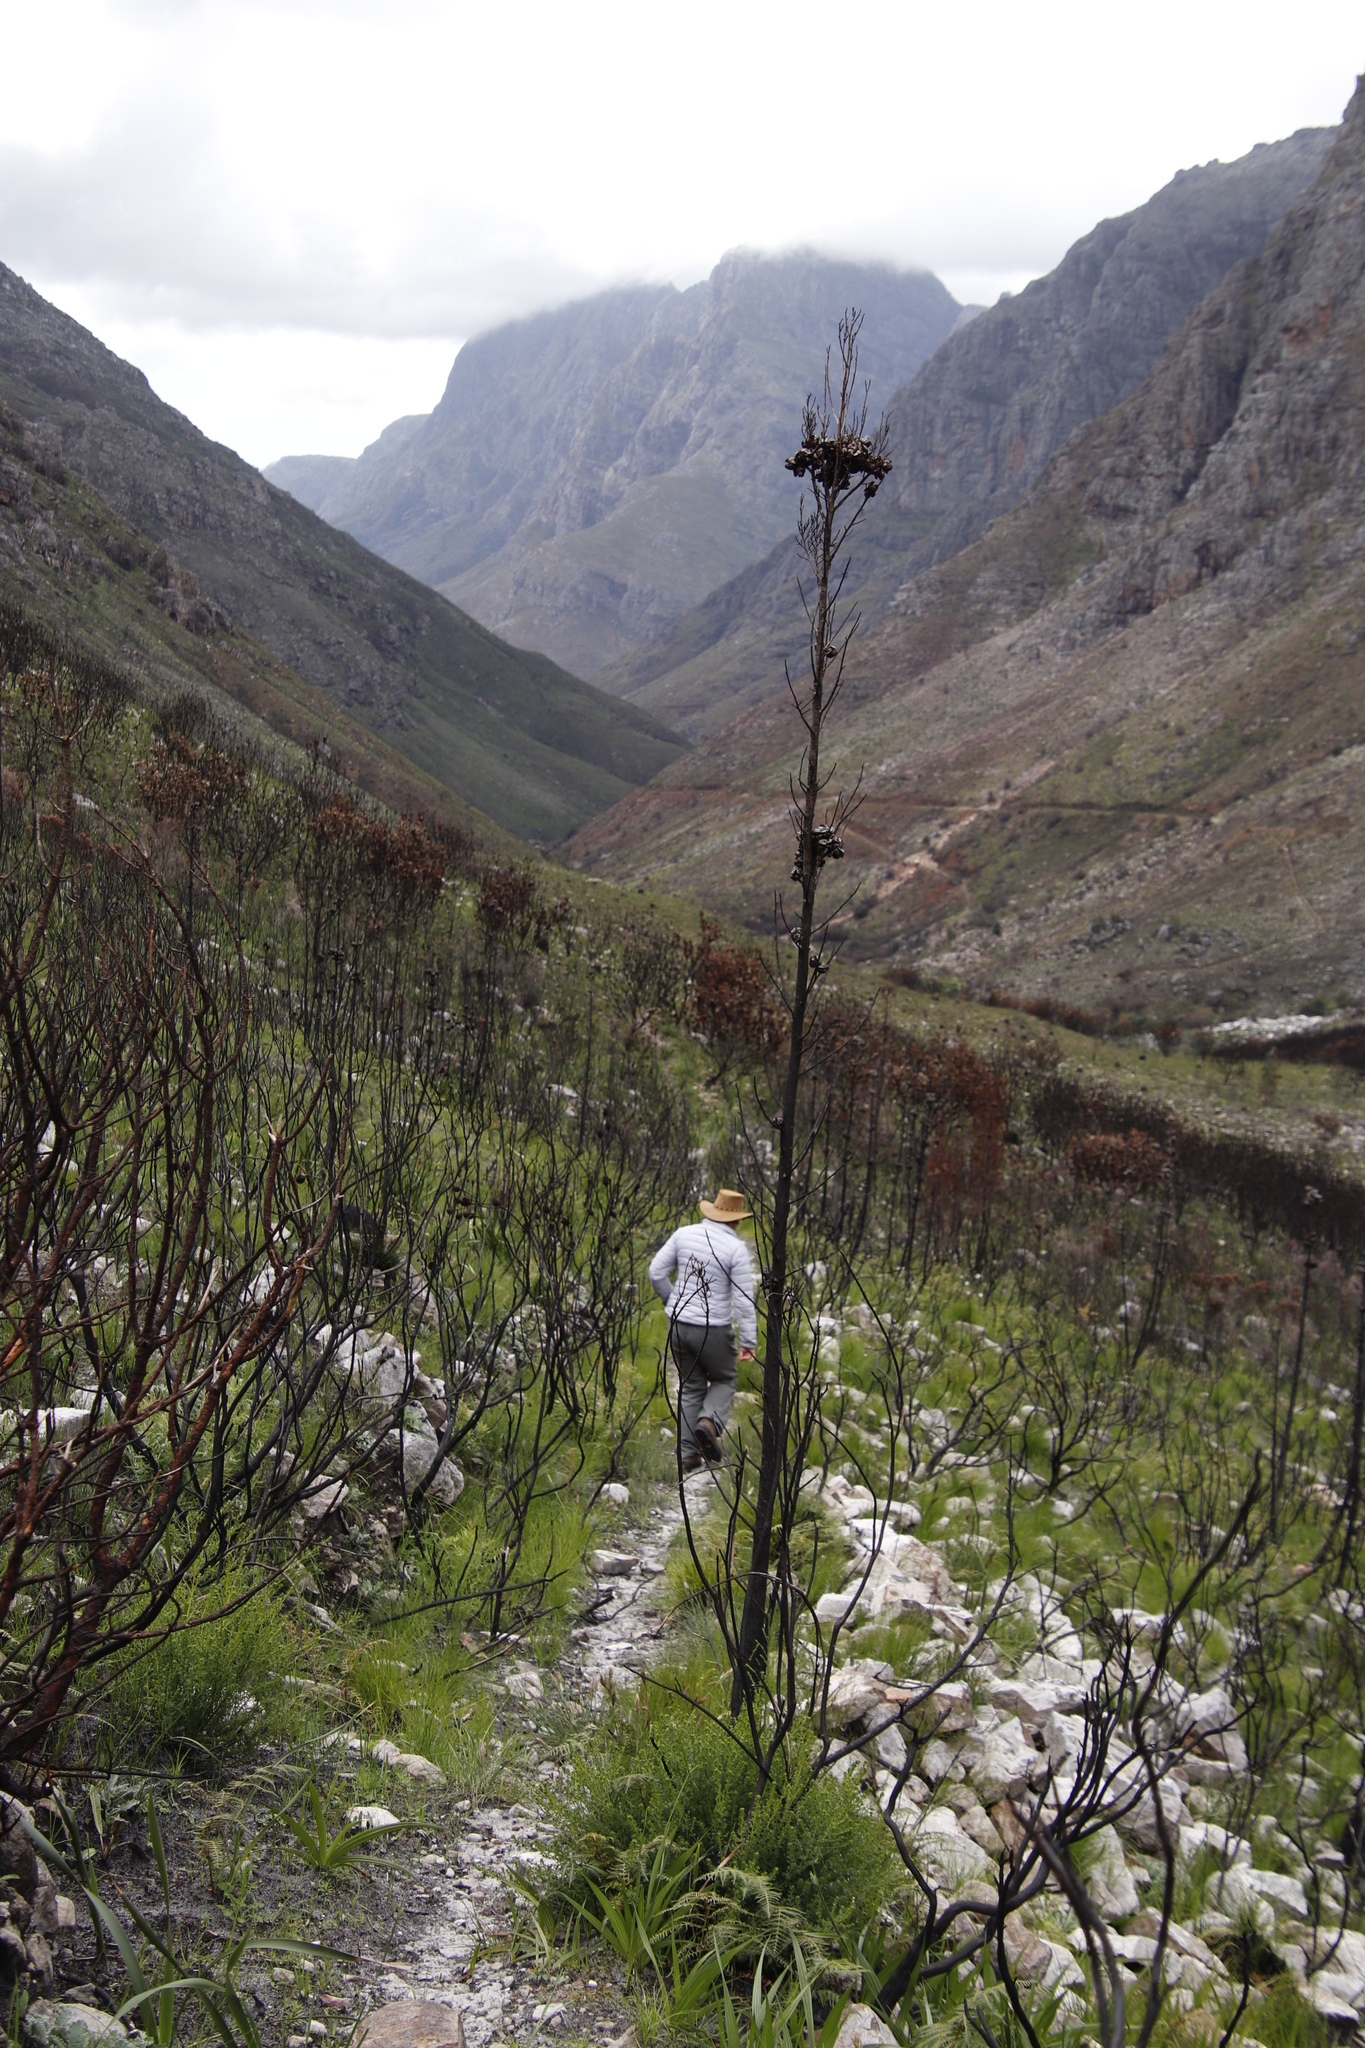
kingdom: Plantae
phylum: Tracheophyta
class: Pinopsida
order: Pinales
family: Cupressaceae
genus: Widdringtonia
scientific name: Widdringtonia nodiflora
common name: Cape cypress
